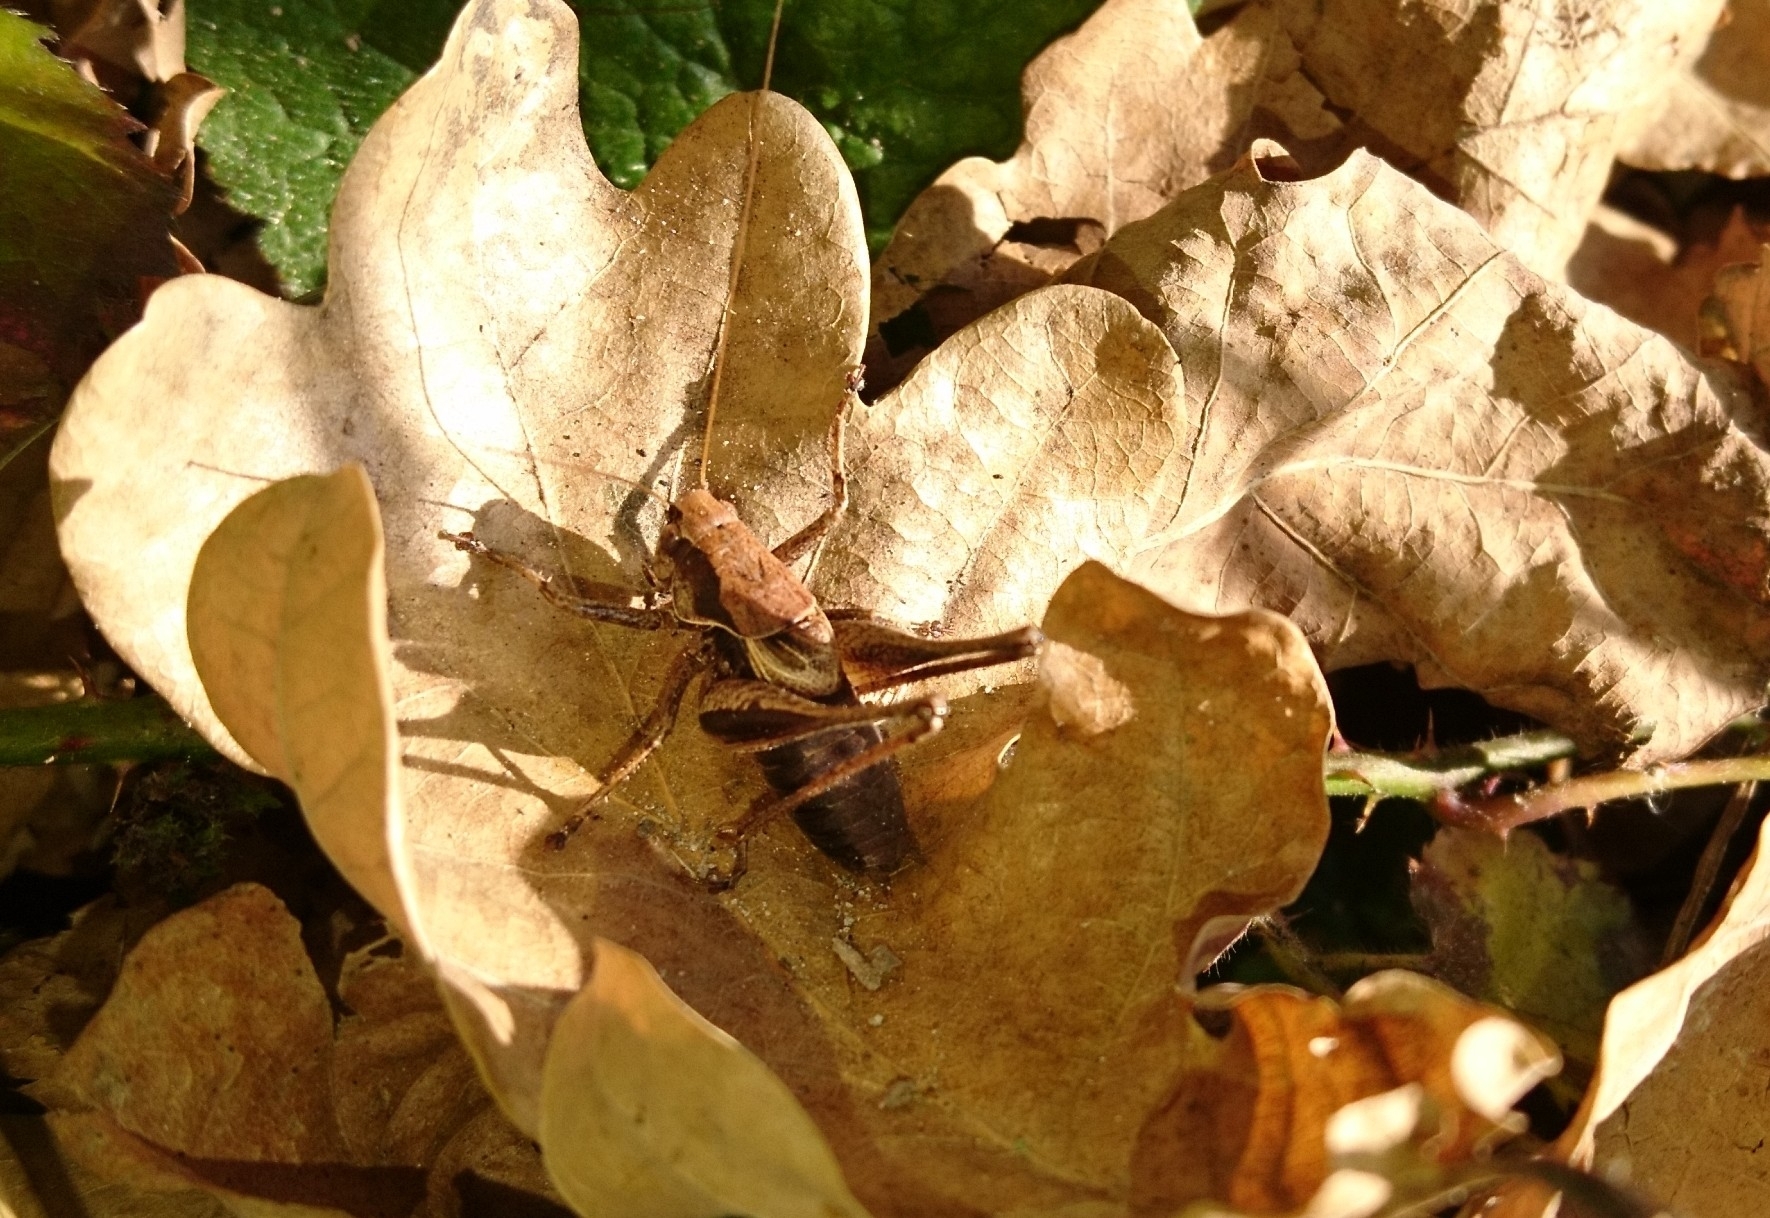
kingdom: Animalia
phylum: Arthropoda
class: Insecta
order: Orthoptera
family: Tettigoniidae
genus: Pholidoptera
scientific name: Pholidoptera griseoaptera
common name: Dark bush-cricket
